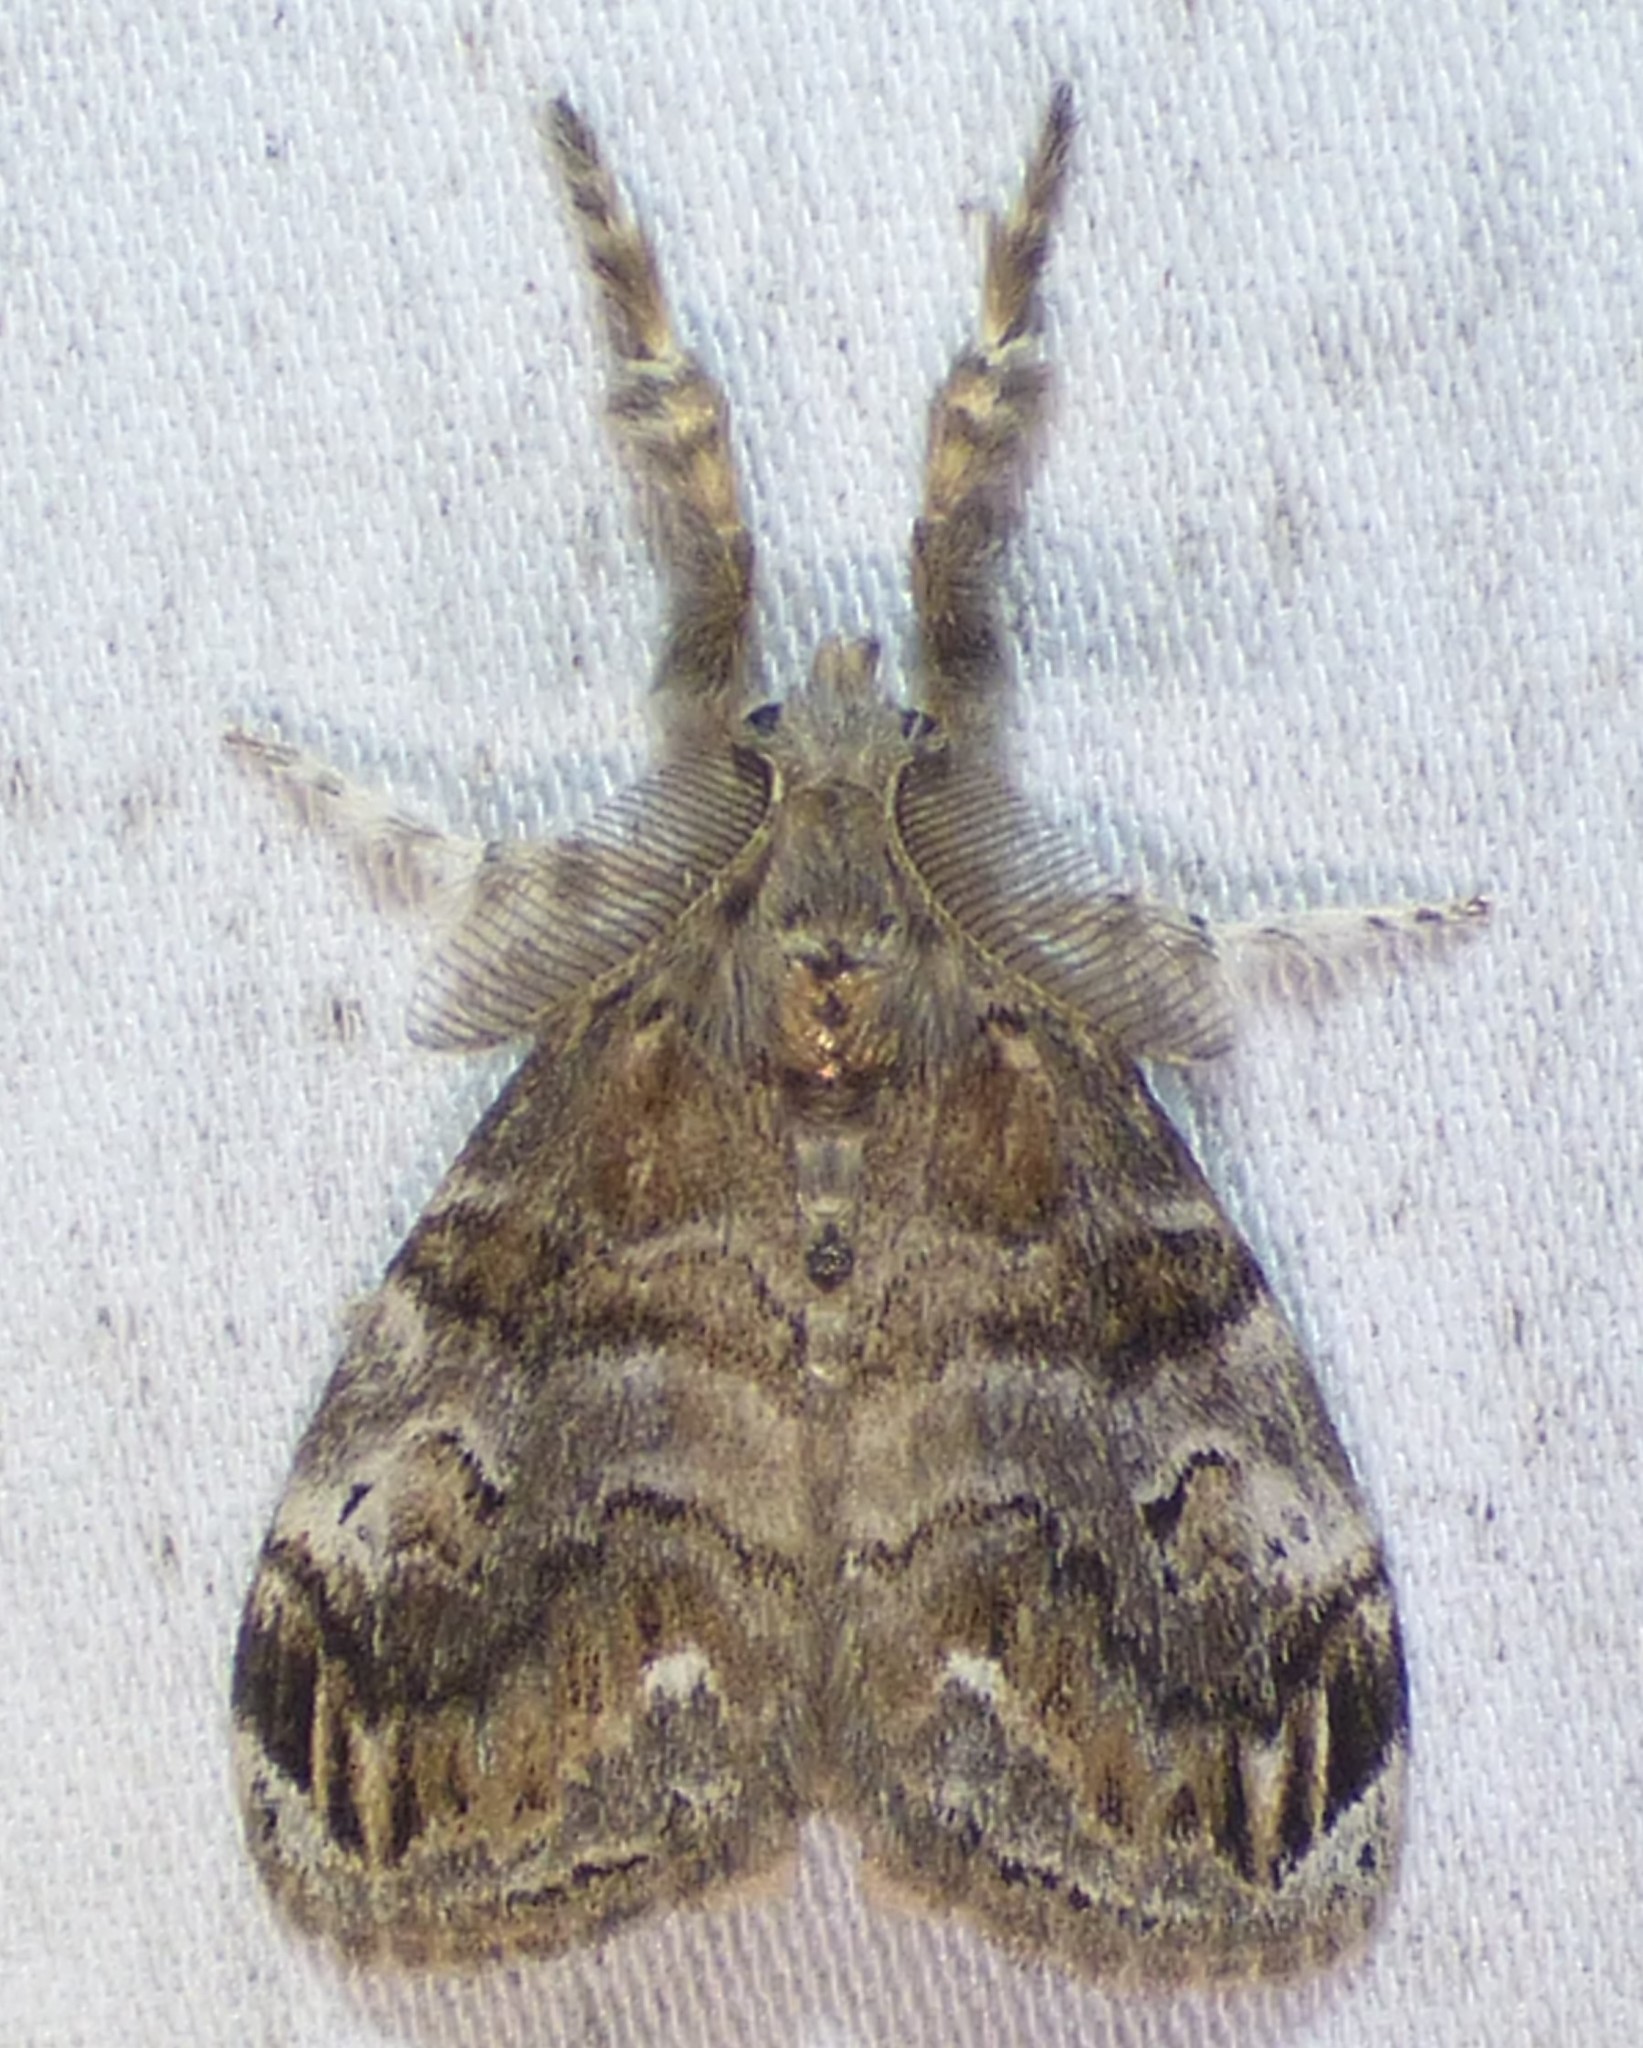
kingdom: Animalia
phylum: Arthropoda
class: Insecta
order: Lepidoptera
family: Erebidae
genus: Orgyia
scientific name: Orgyia definita
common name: Definite tussock moth
